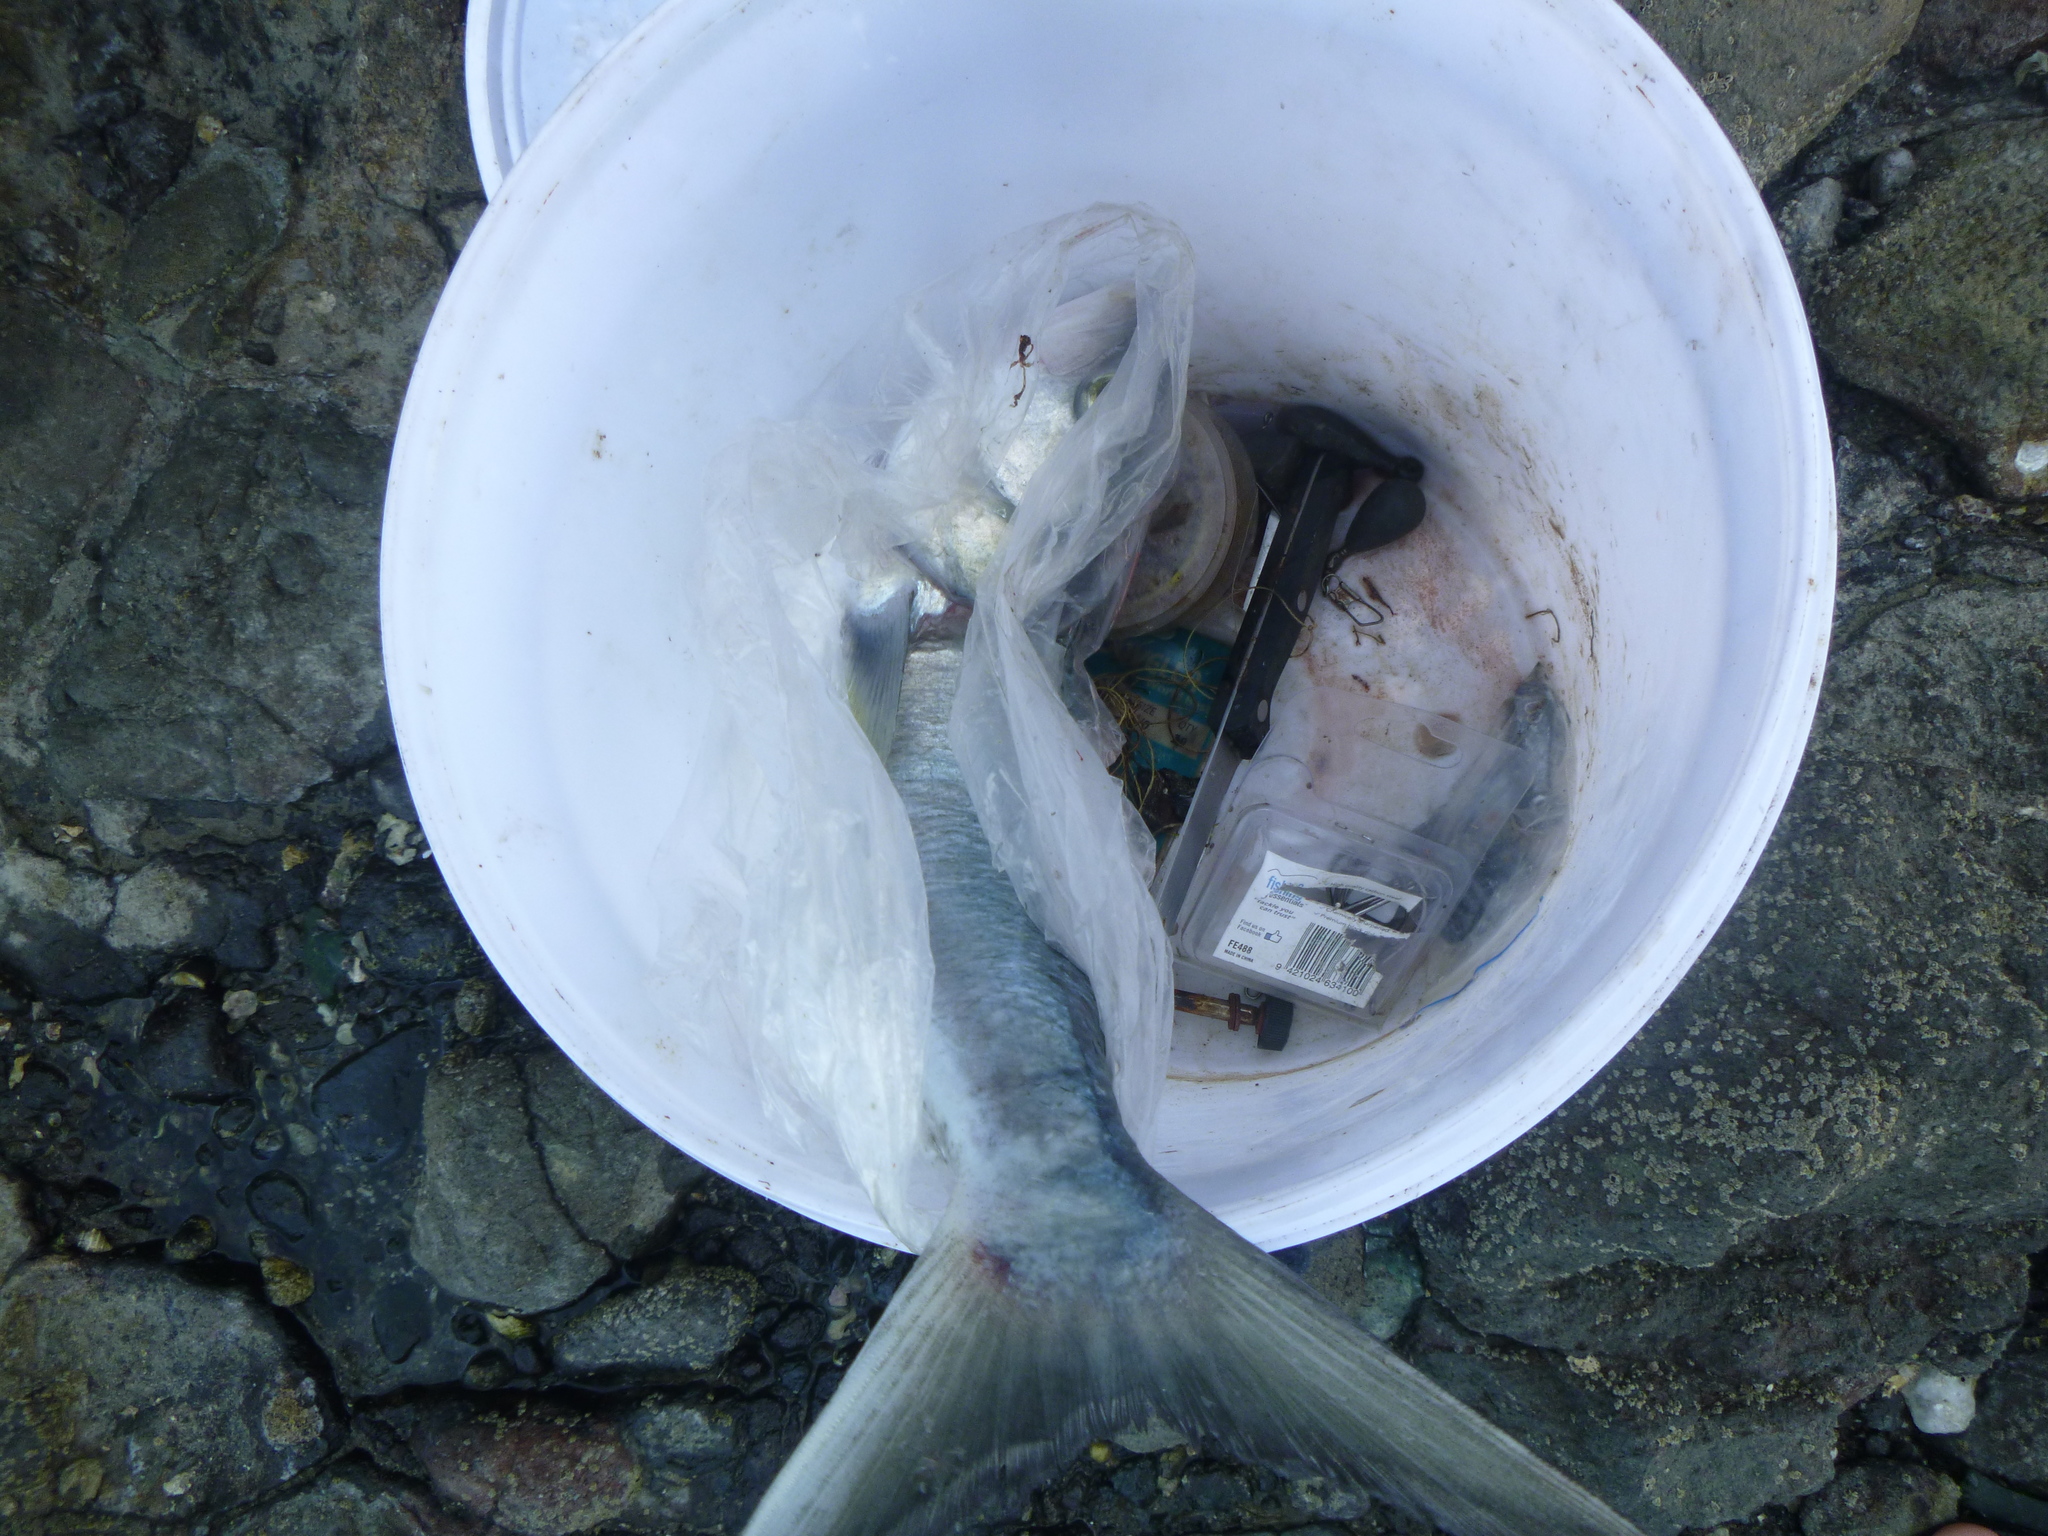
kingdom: Animalia
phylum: Chordata
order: Perciformes
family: Arripidae
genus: Arripis
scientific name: Arripis trutta
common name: Kahawai
